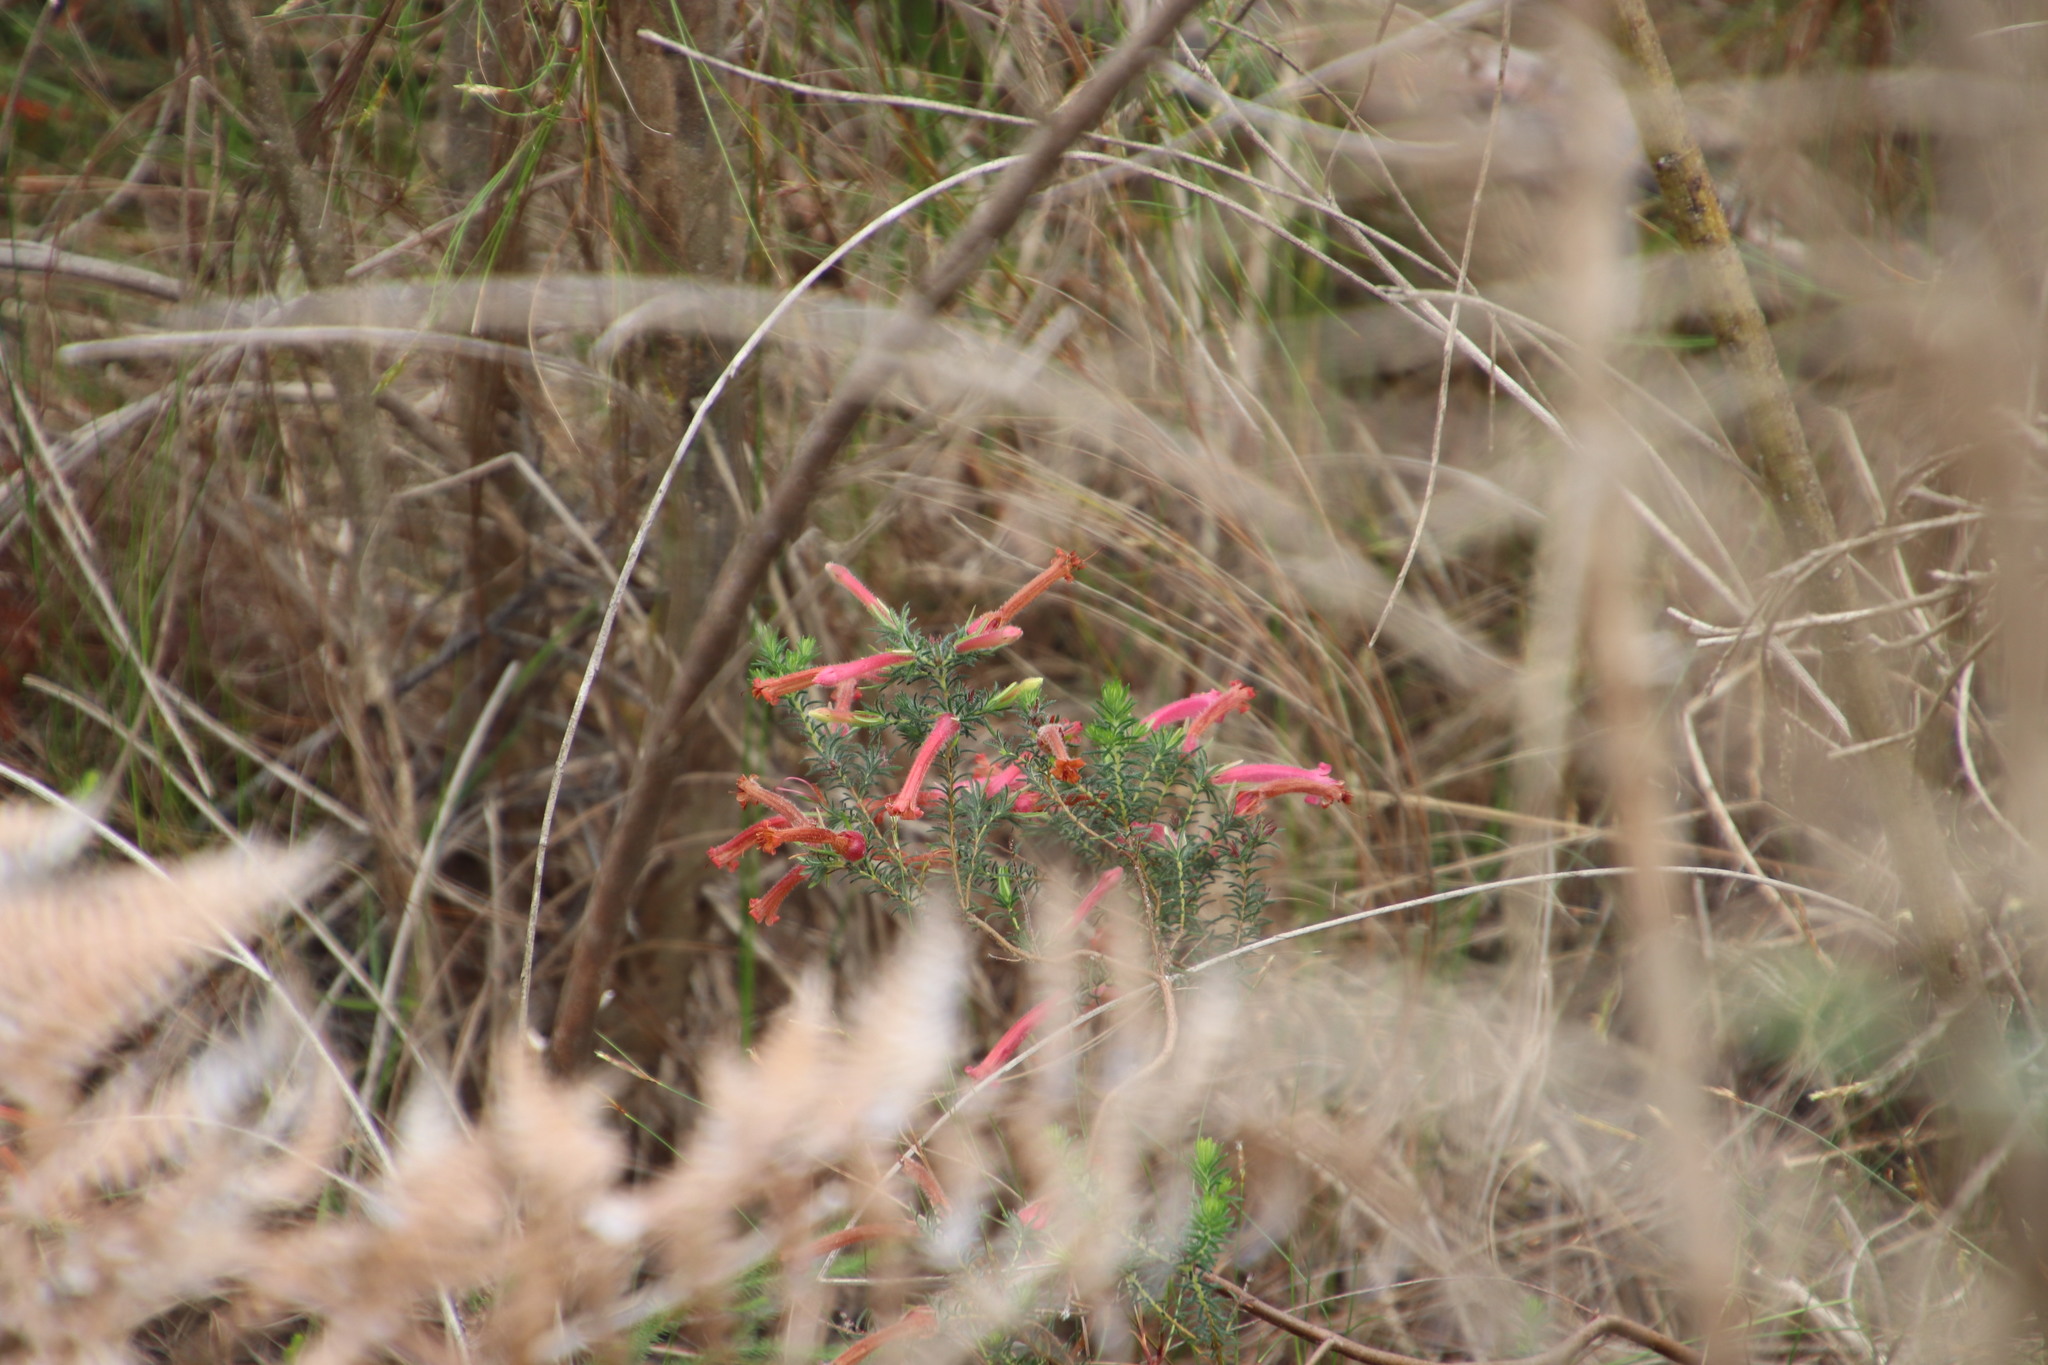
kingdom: Plantae
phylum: Tracheophyta
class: Magnoliopsida
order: Ericales
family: Ericaceae
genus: Erica
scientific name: Erica curviflora
